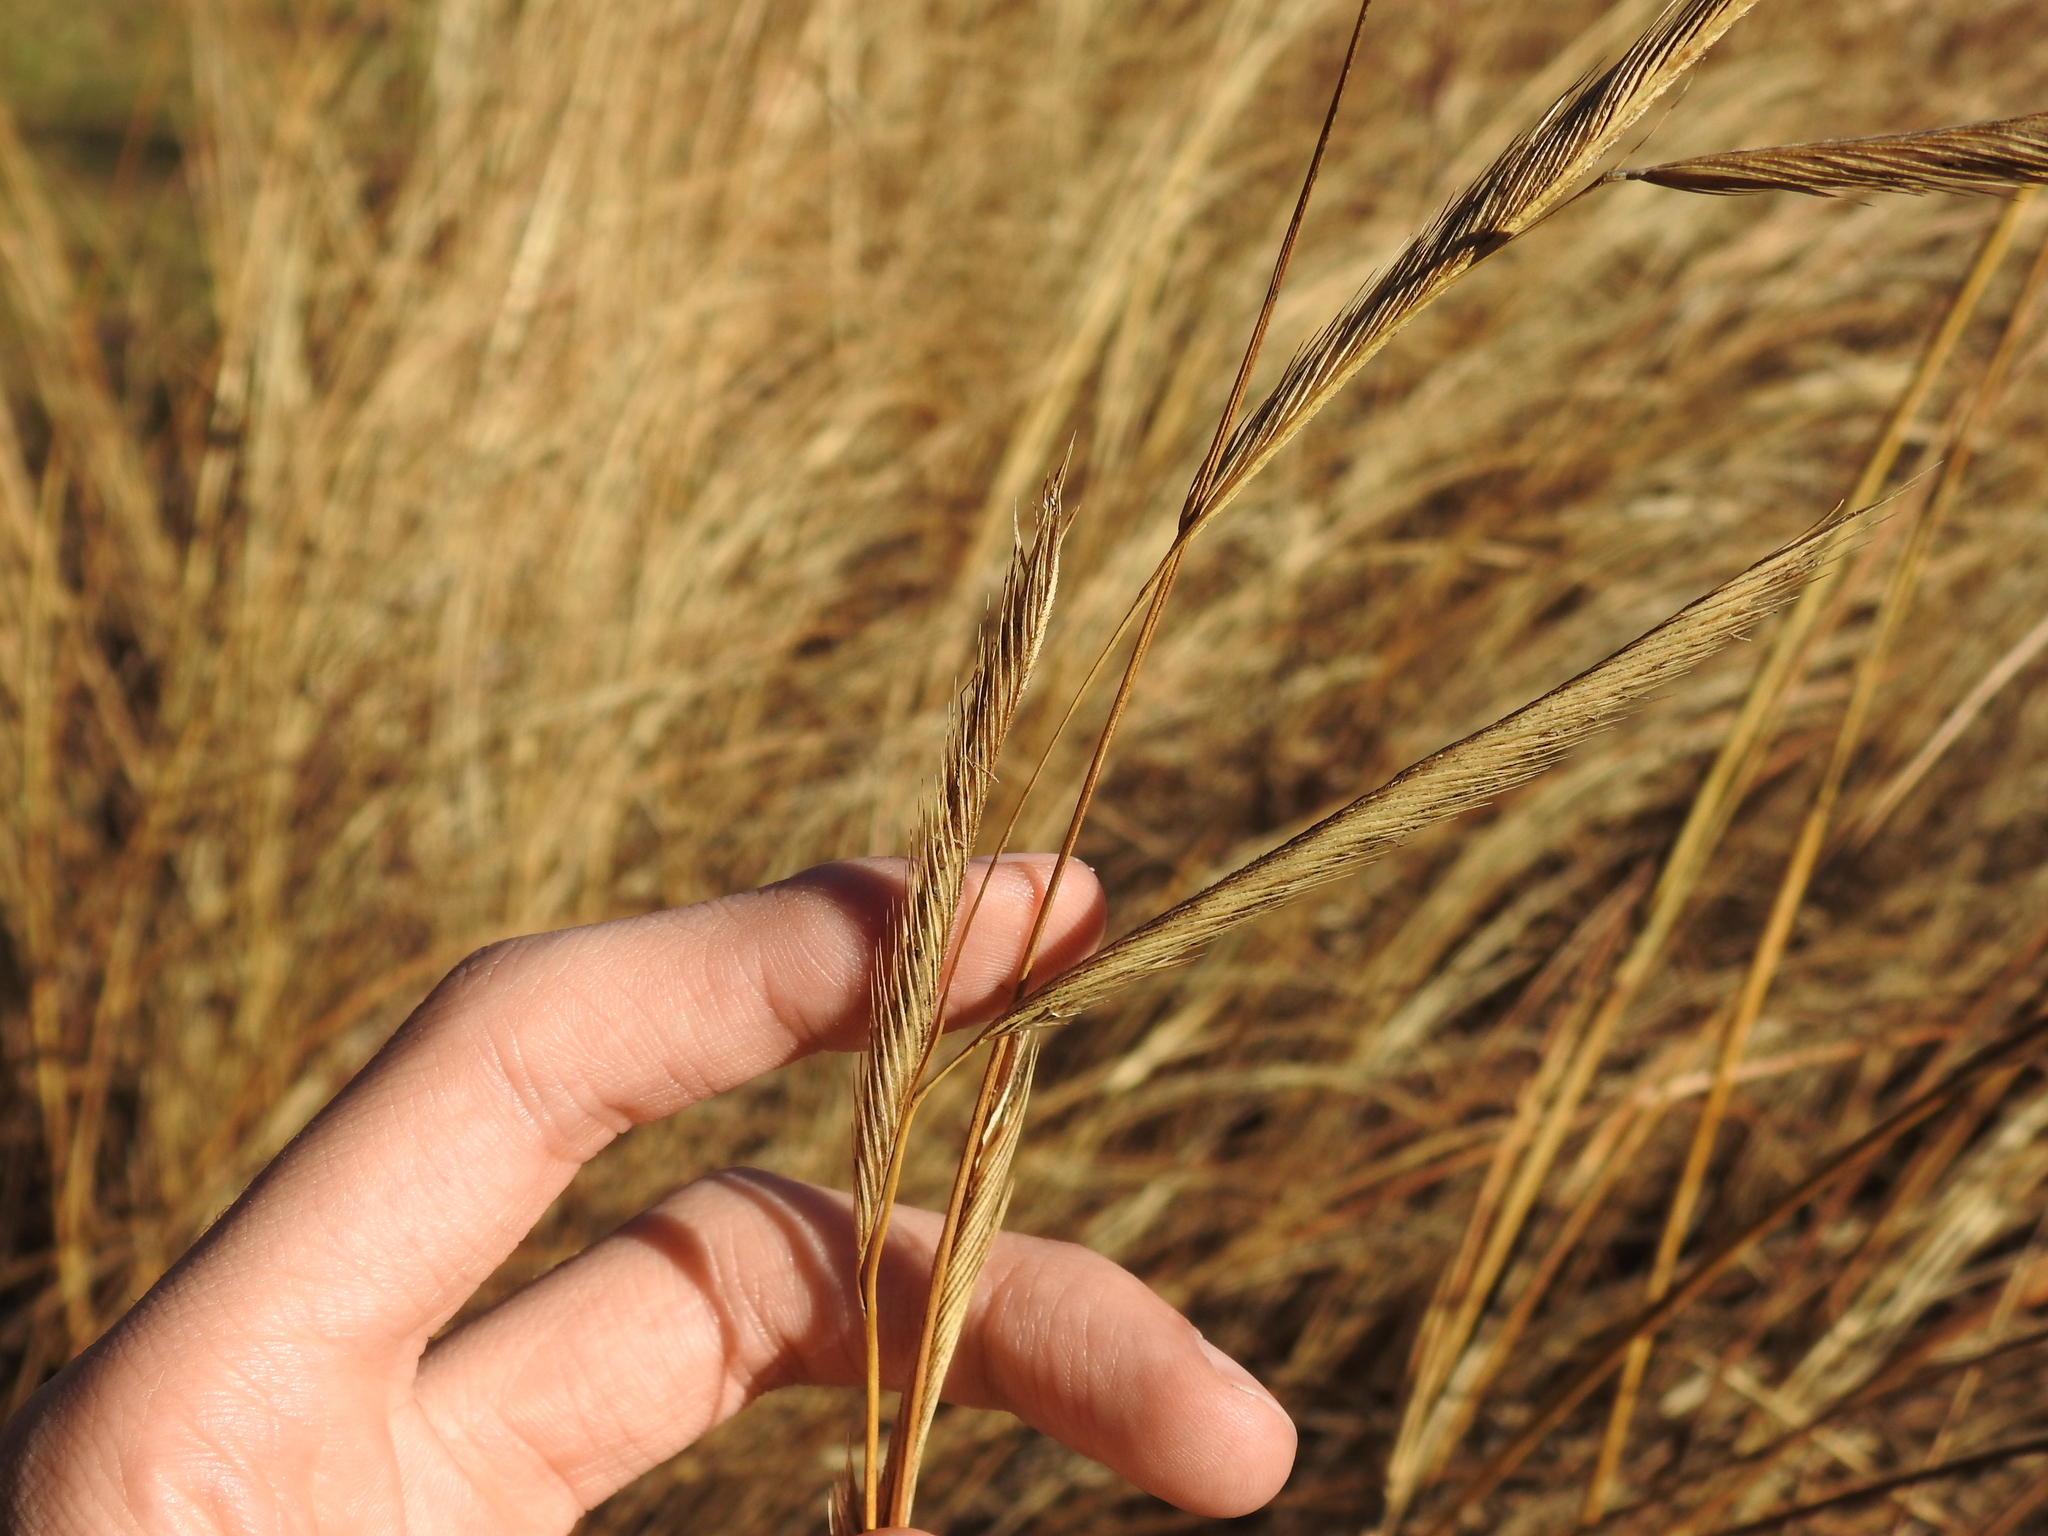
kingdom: Plantae
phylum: Tracheophyta
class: Liliopsida
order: Poales
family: Poaceae
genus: Sporobolus
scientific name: Sporobolus michauxianus
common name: Freshwater cordgrass
